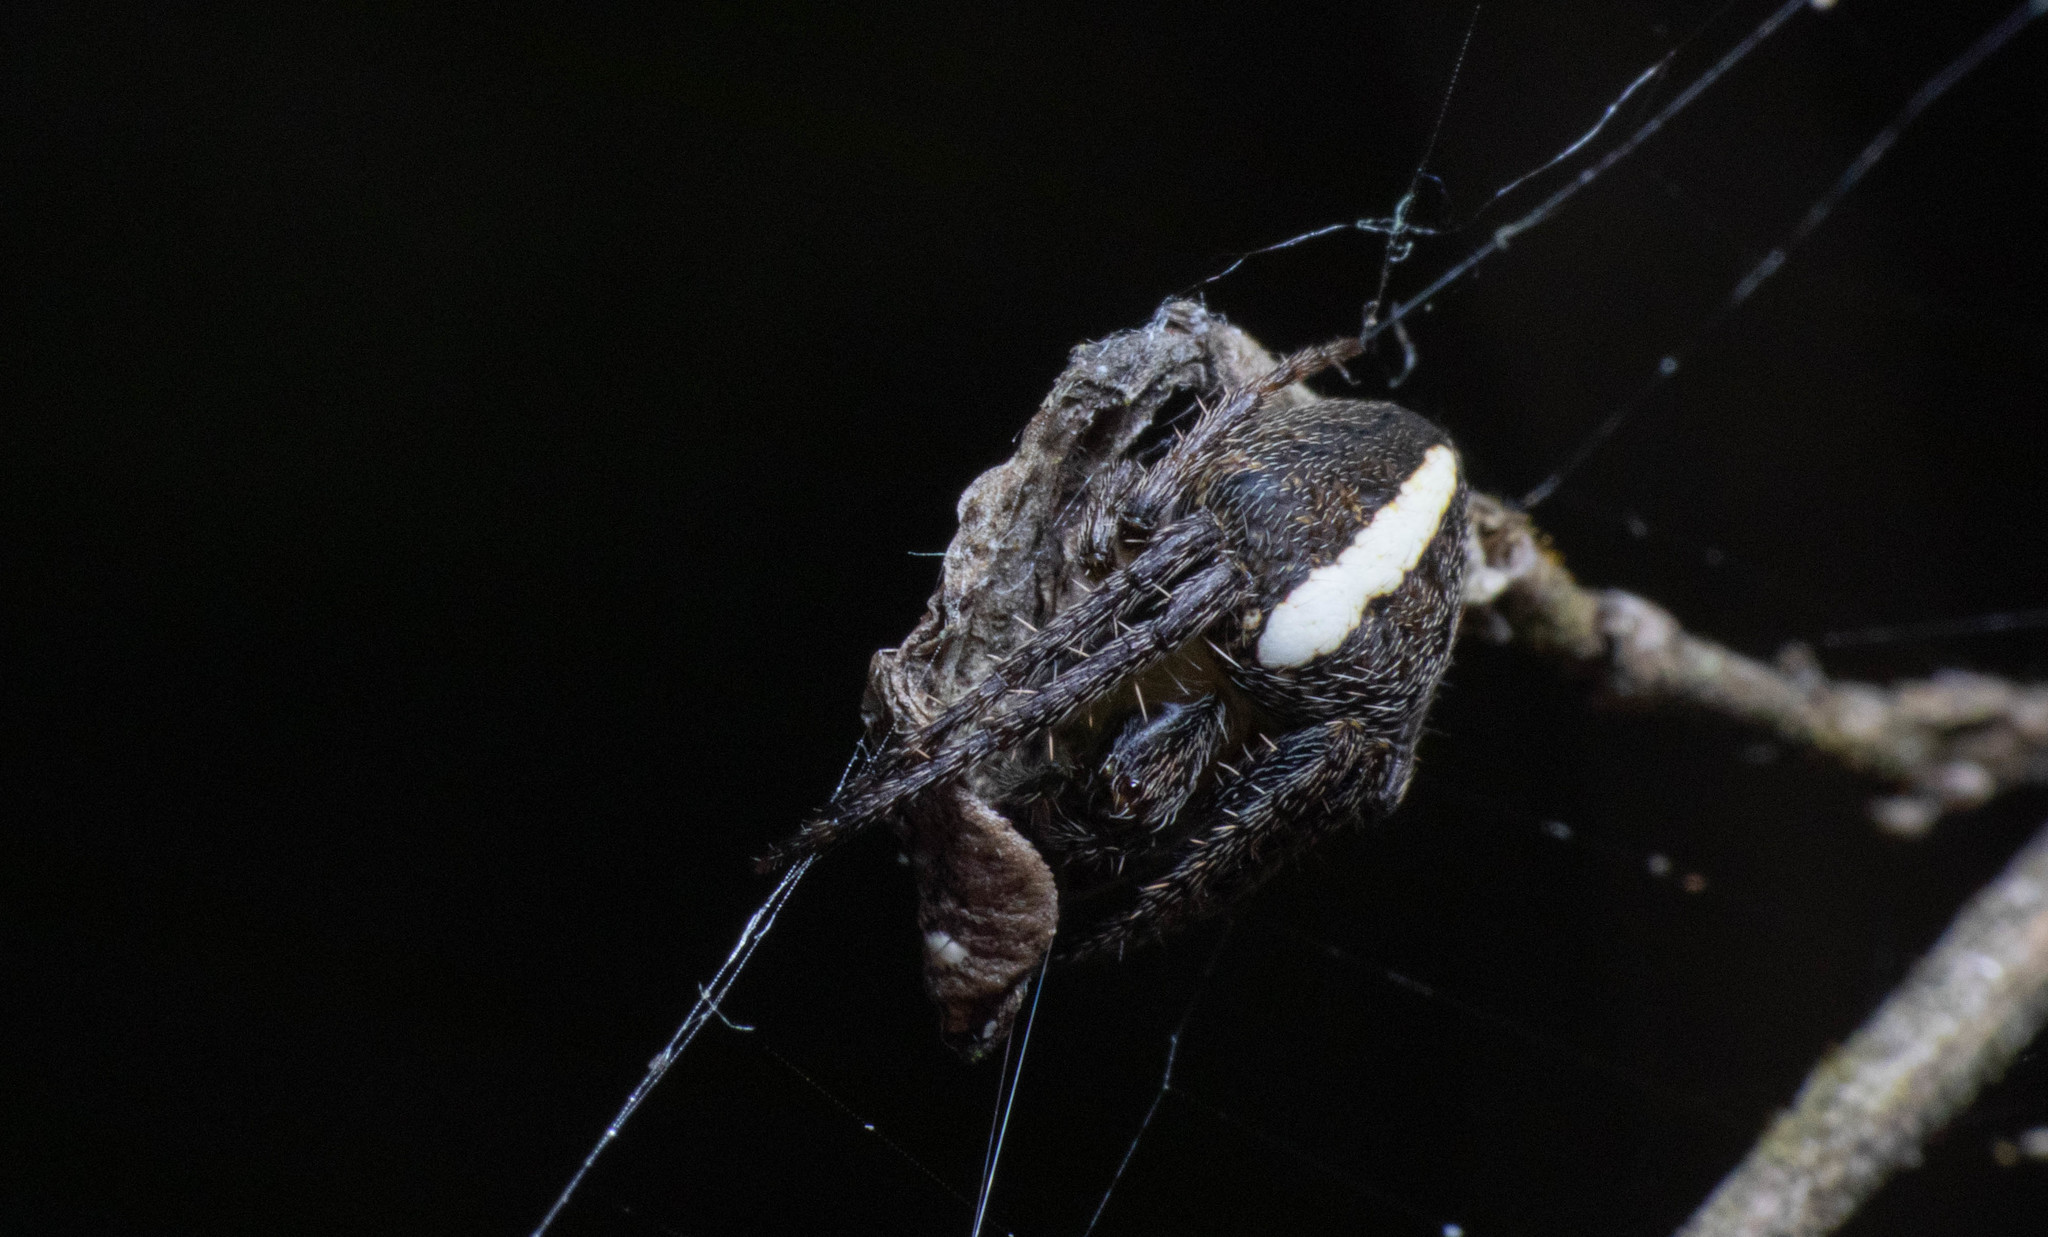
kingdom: Animalia
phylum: Arthropoda
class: Arachnida
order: Araneae
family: Araneidae
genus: Colaranea
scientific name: Colaranea verutum
